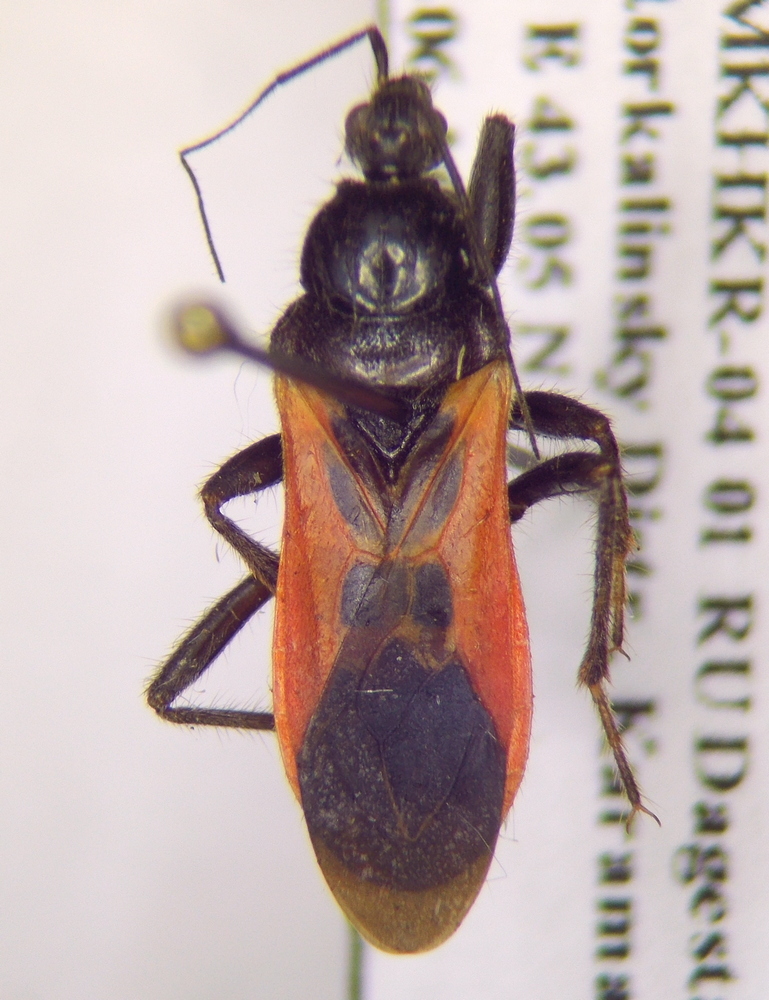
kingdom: Animalia
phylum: Arthropoda
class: Insecta
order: Hemiptera
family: Reduviidae
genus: Peirates
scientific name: Peirates hybridus
